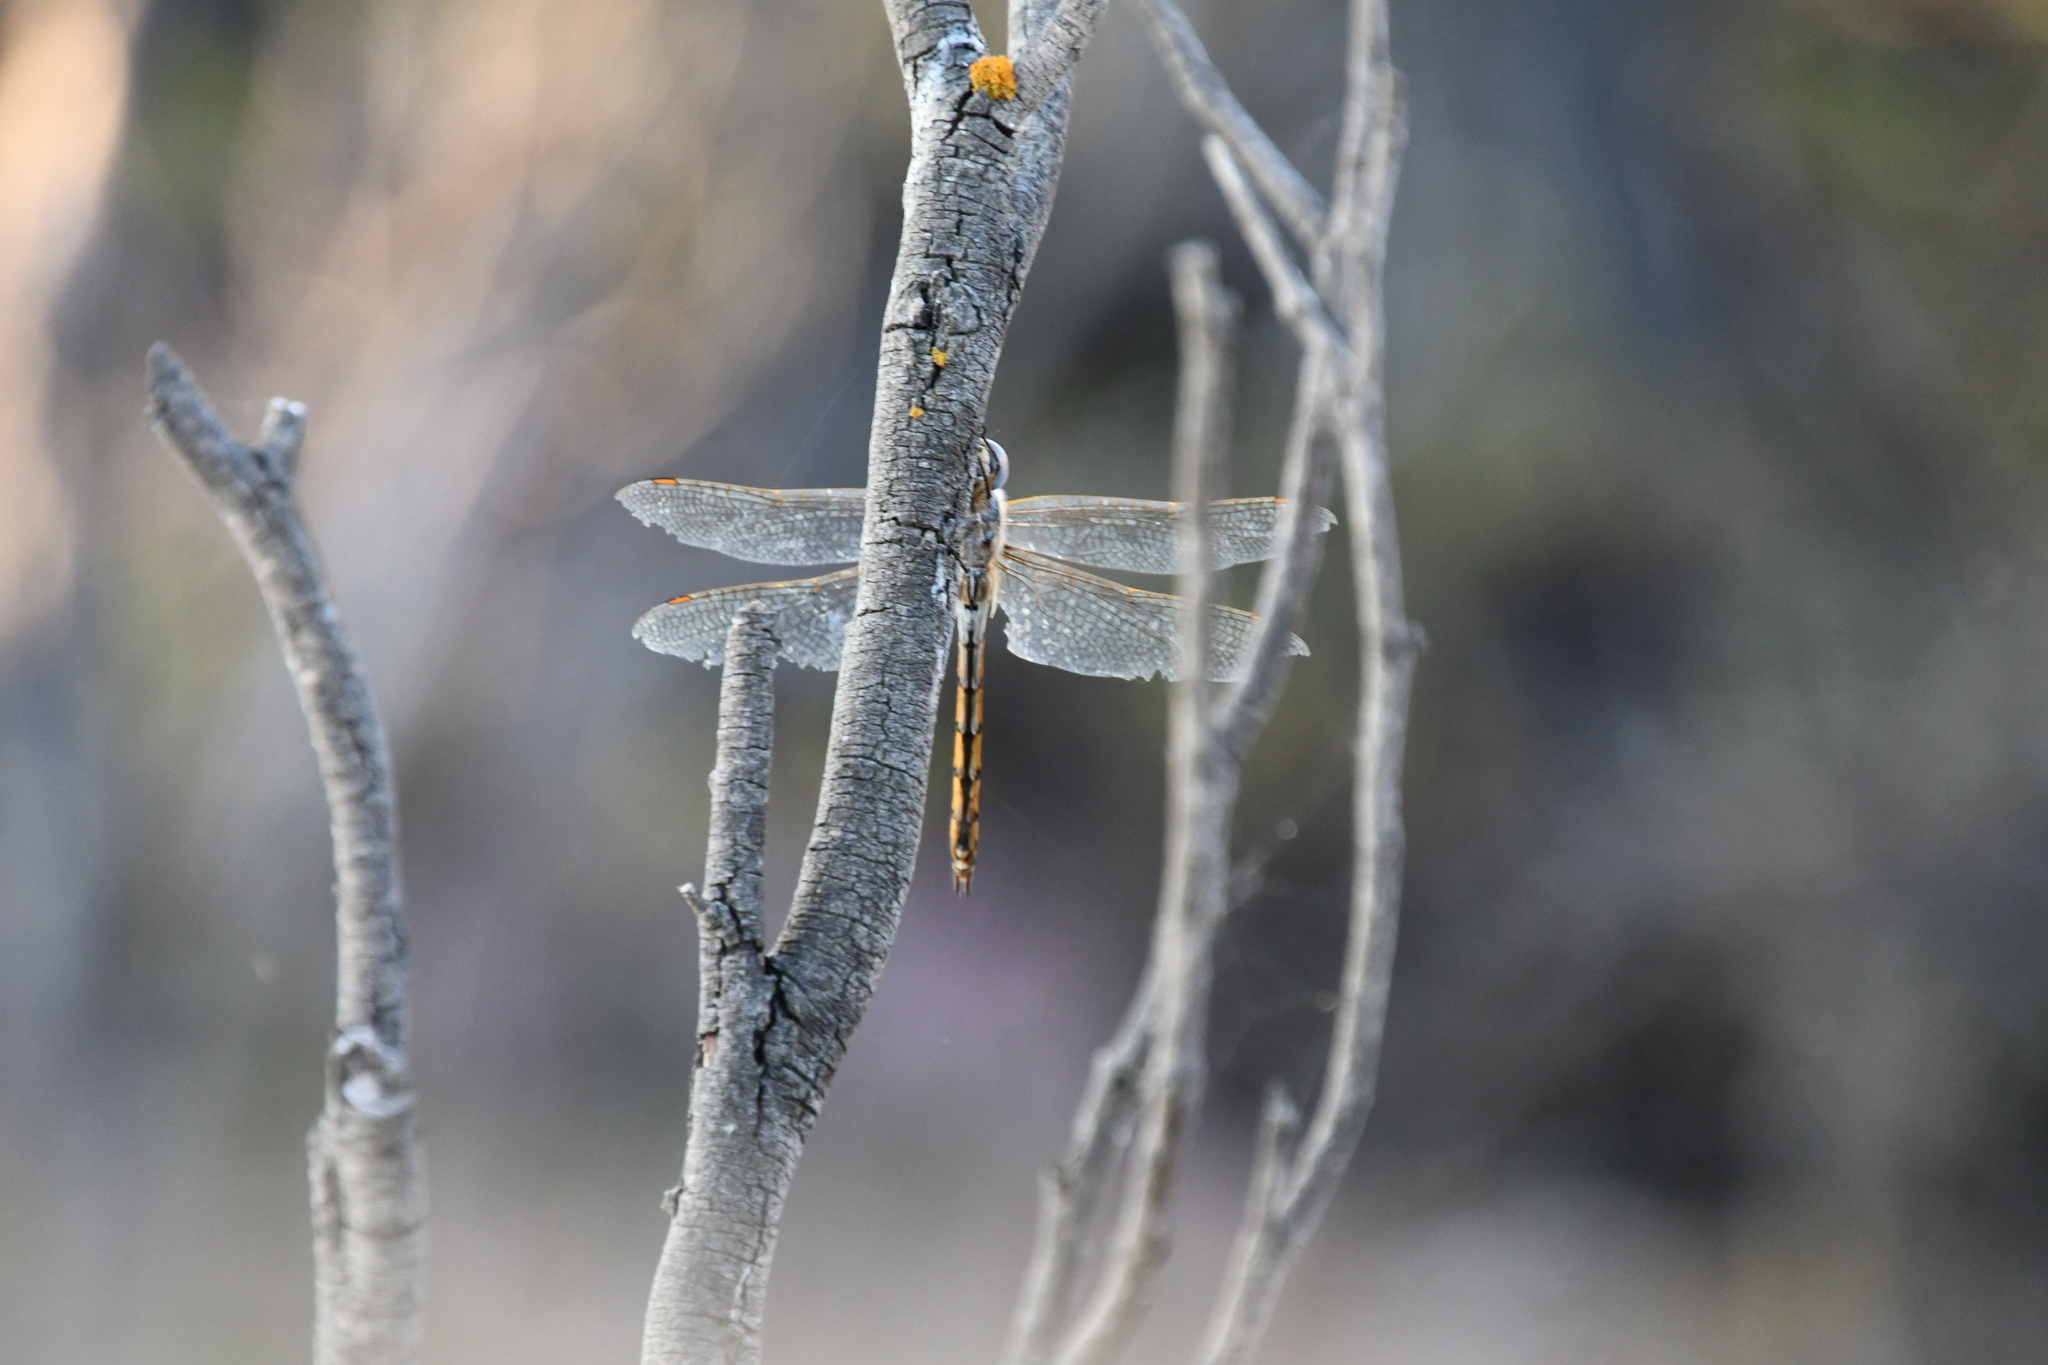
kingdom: Animalia
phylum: Arthropoda
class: Insecta
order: Odonata
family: Corduliidae
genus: Hemicordulia
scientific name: Hemicordulia tau
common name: Tau emerald
